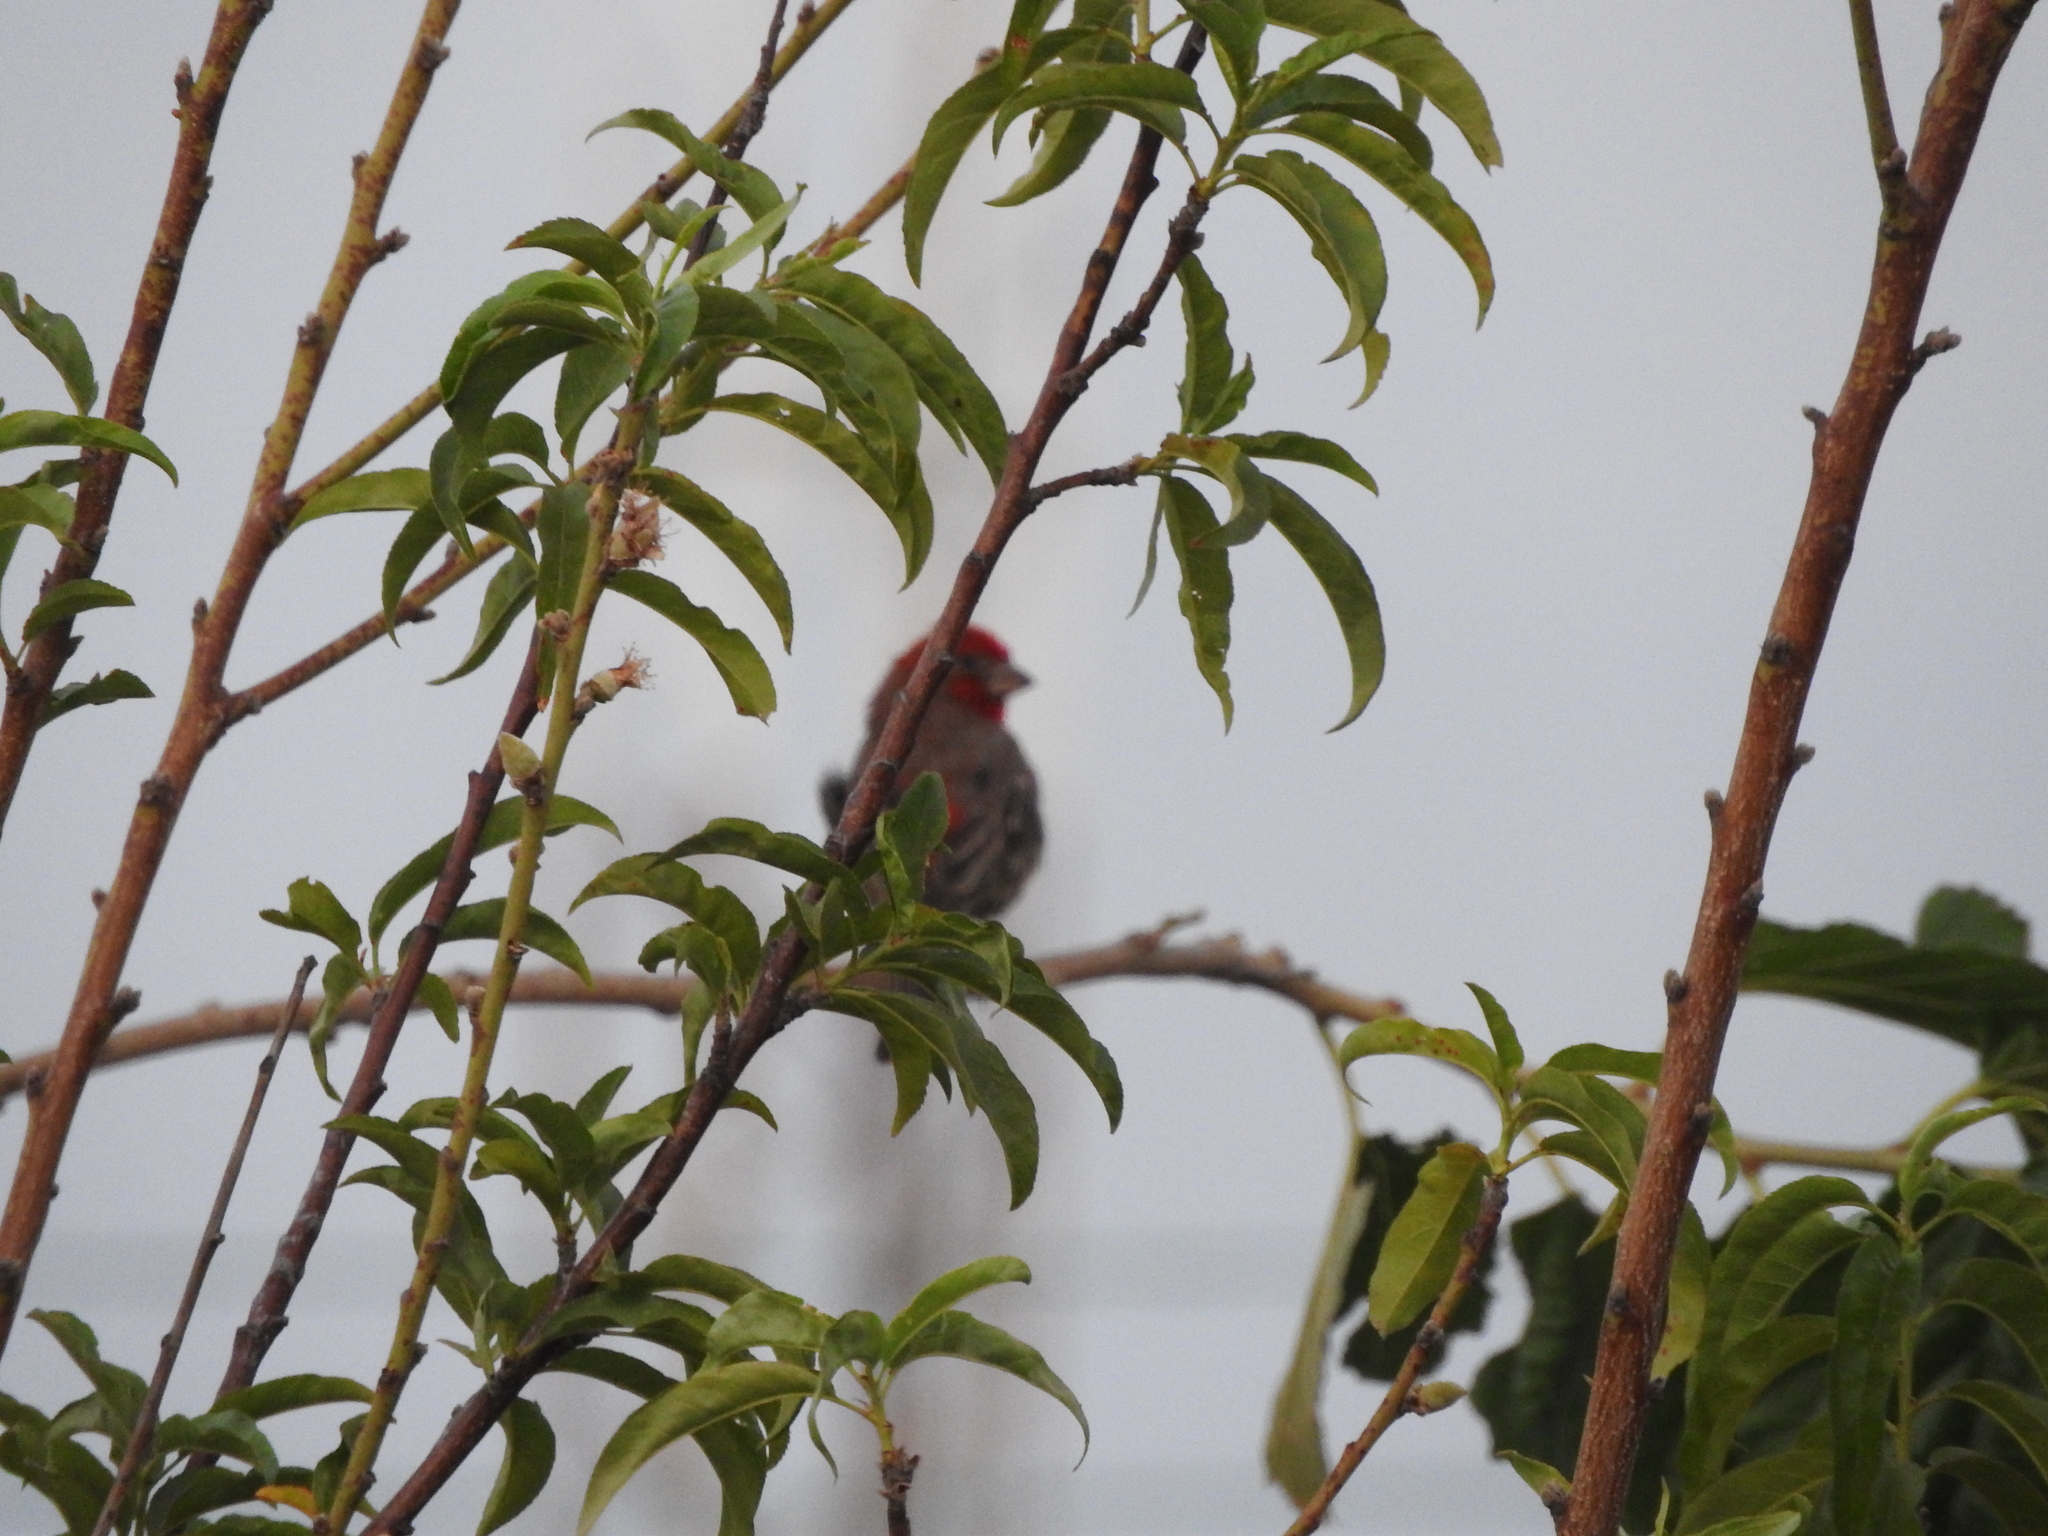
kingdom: Animalia
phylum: Chordata
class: Aves
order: Passeriformes
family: Fringillidae
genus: Haemorhous
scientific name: Haemorhous mexicanus
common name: House finch
